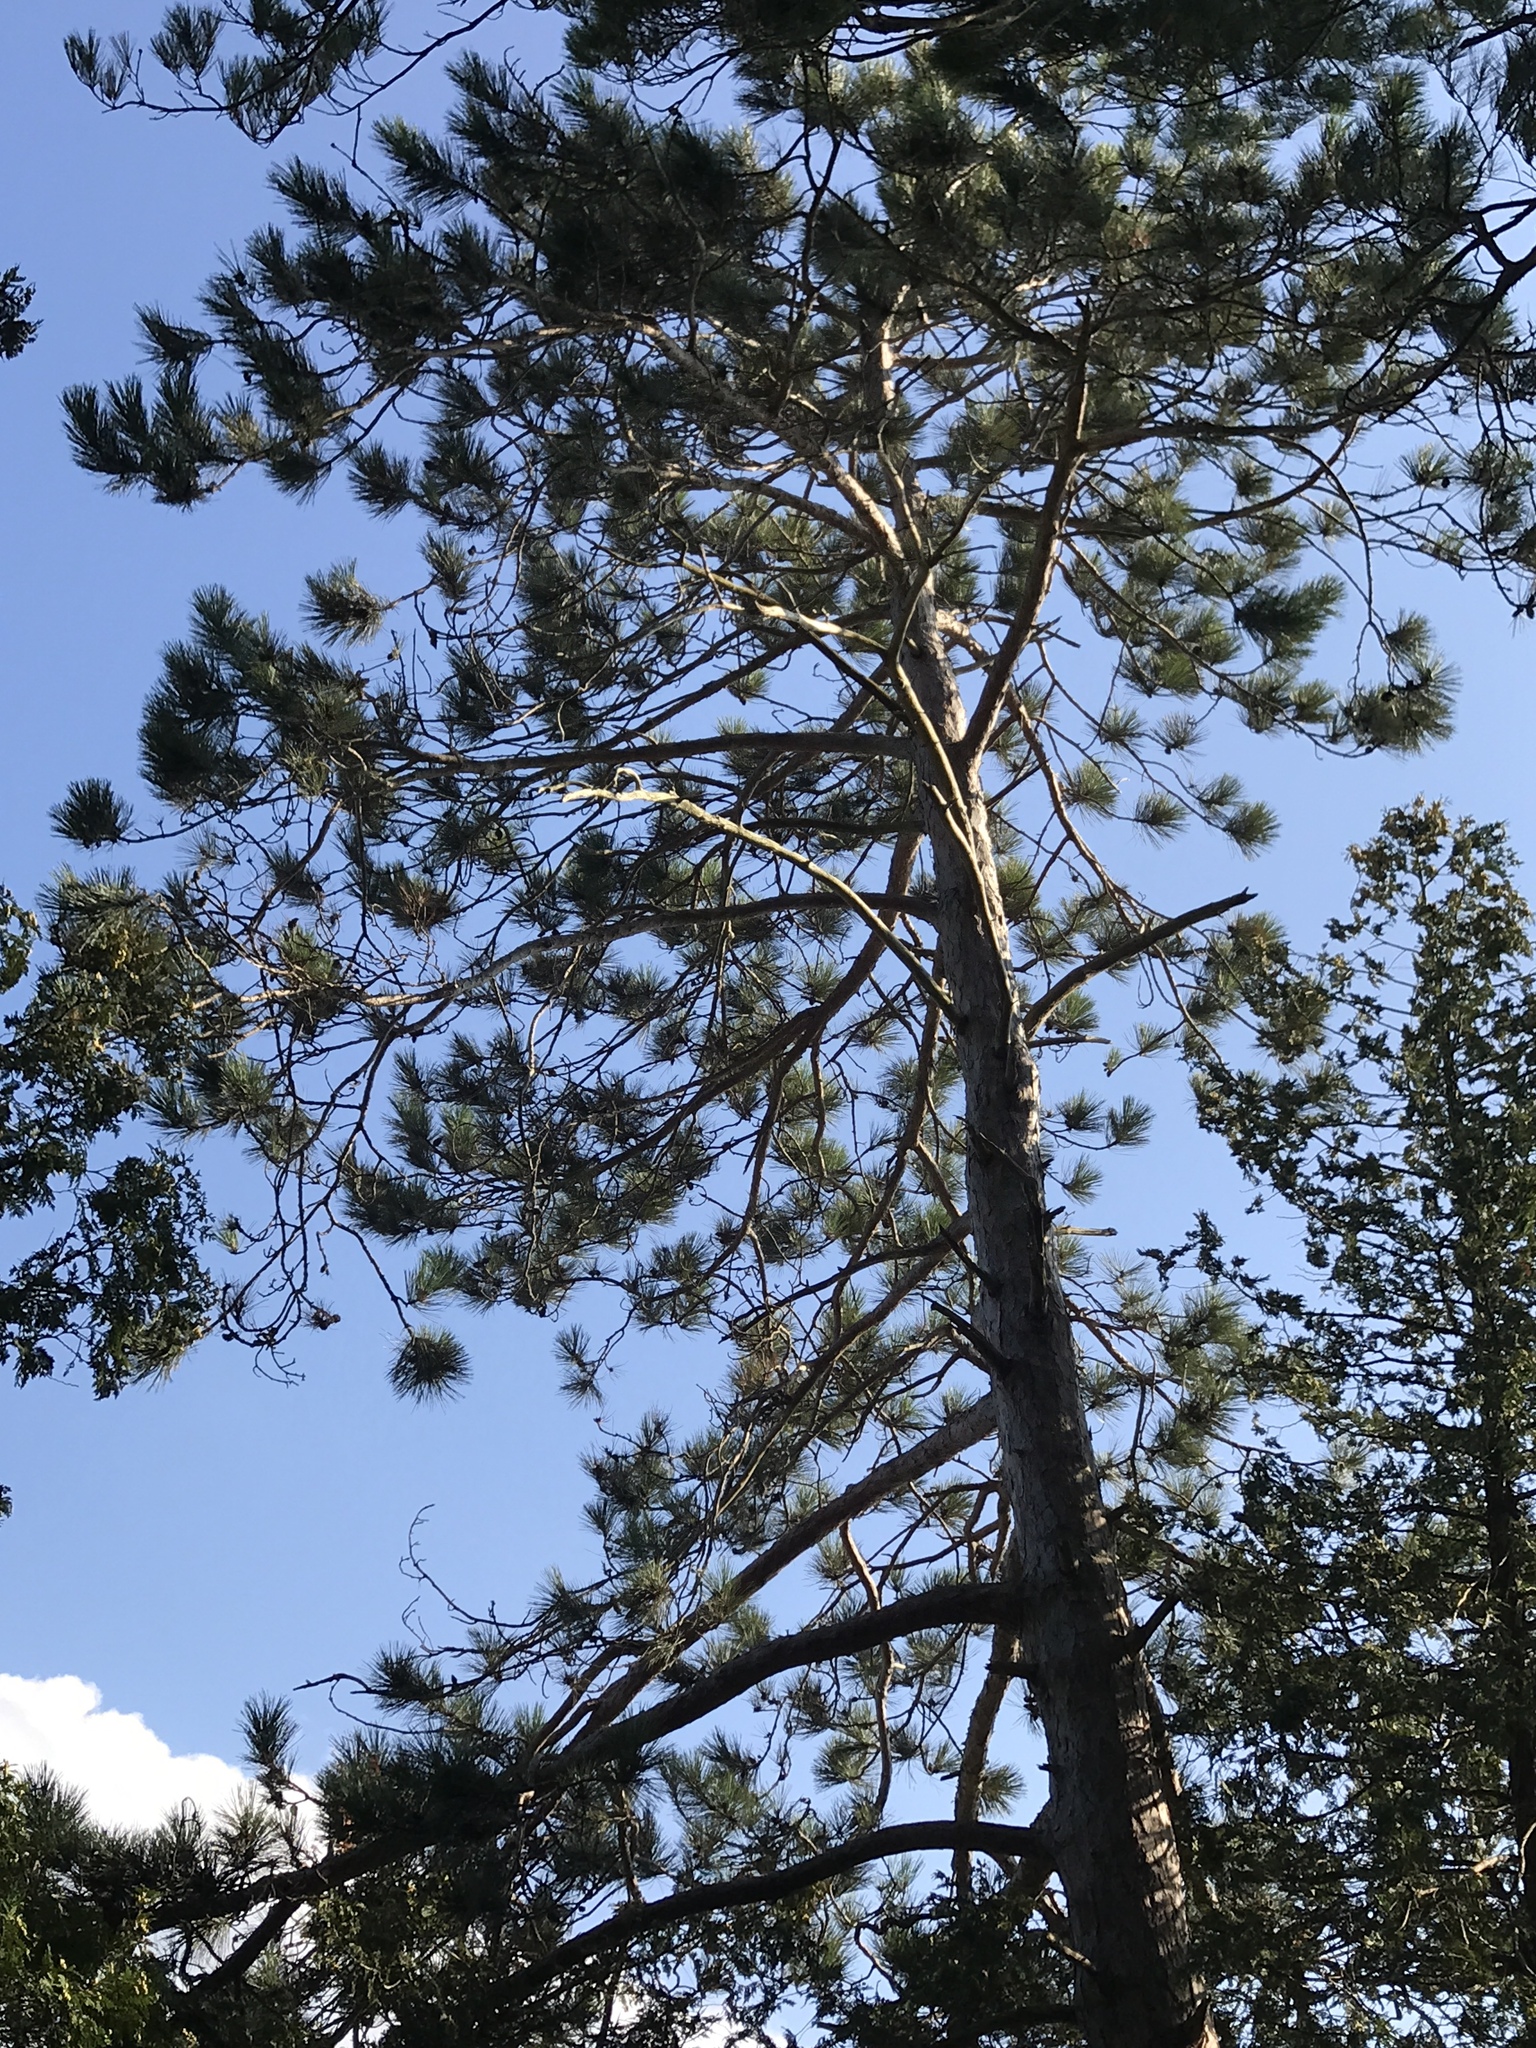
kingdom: Plantae
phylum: Tracheophyta
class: Pinopsida
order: Pinales
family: Pinaceae
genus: Pinus
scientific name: Pinus resinosa
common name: Norway pine
